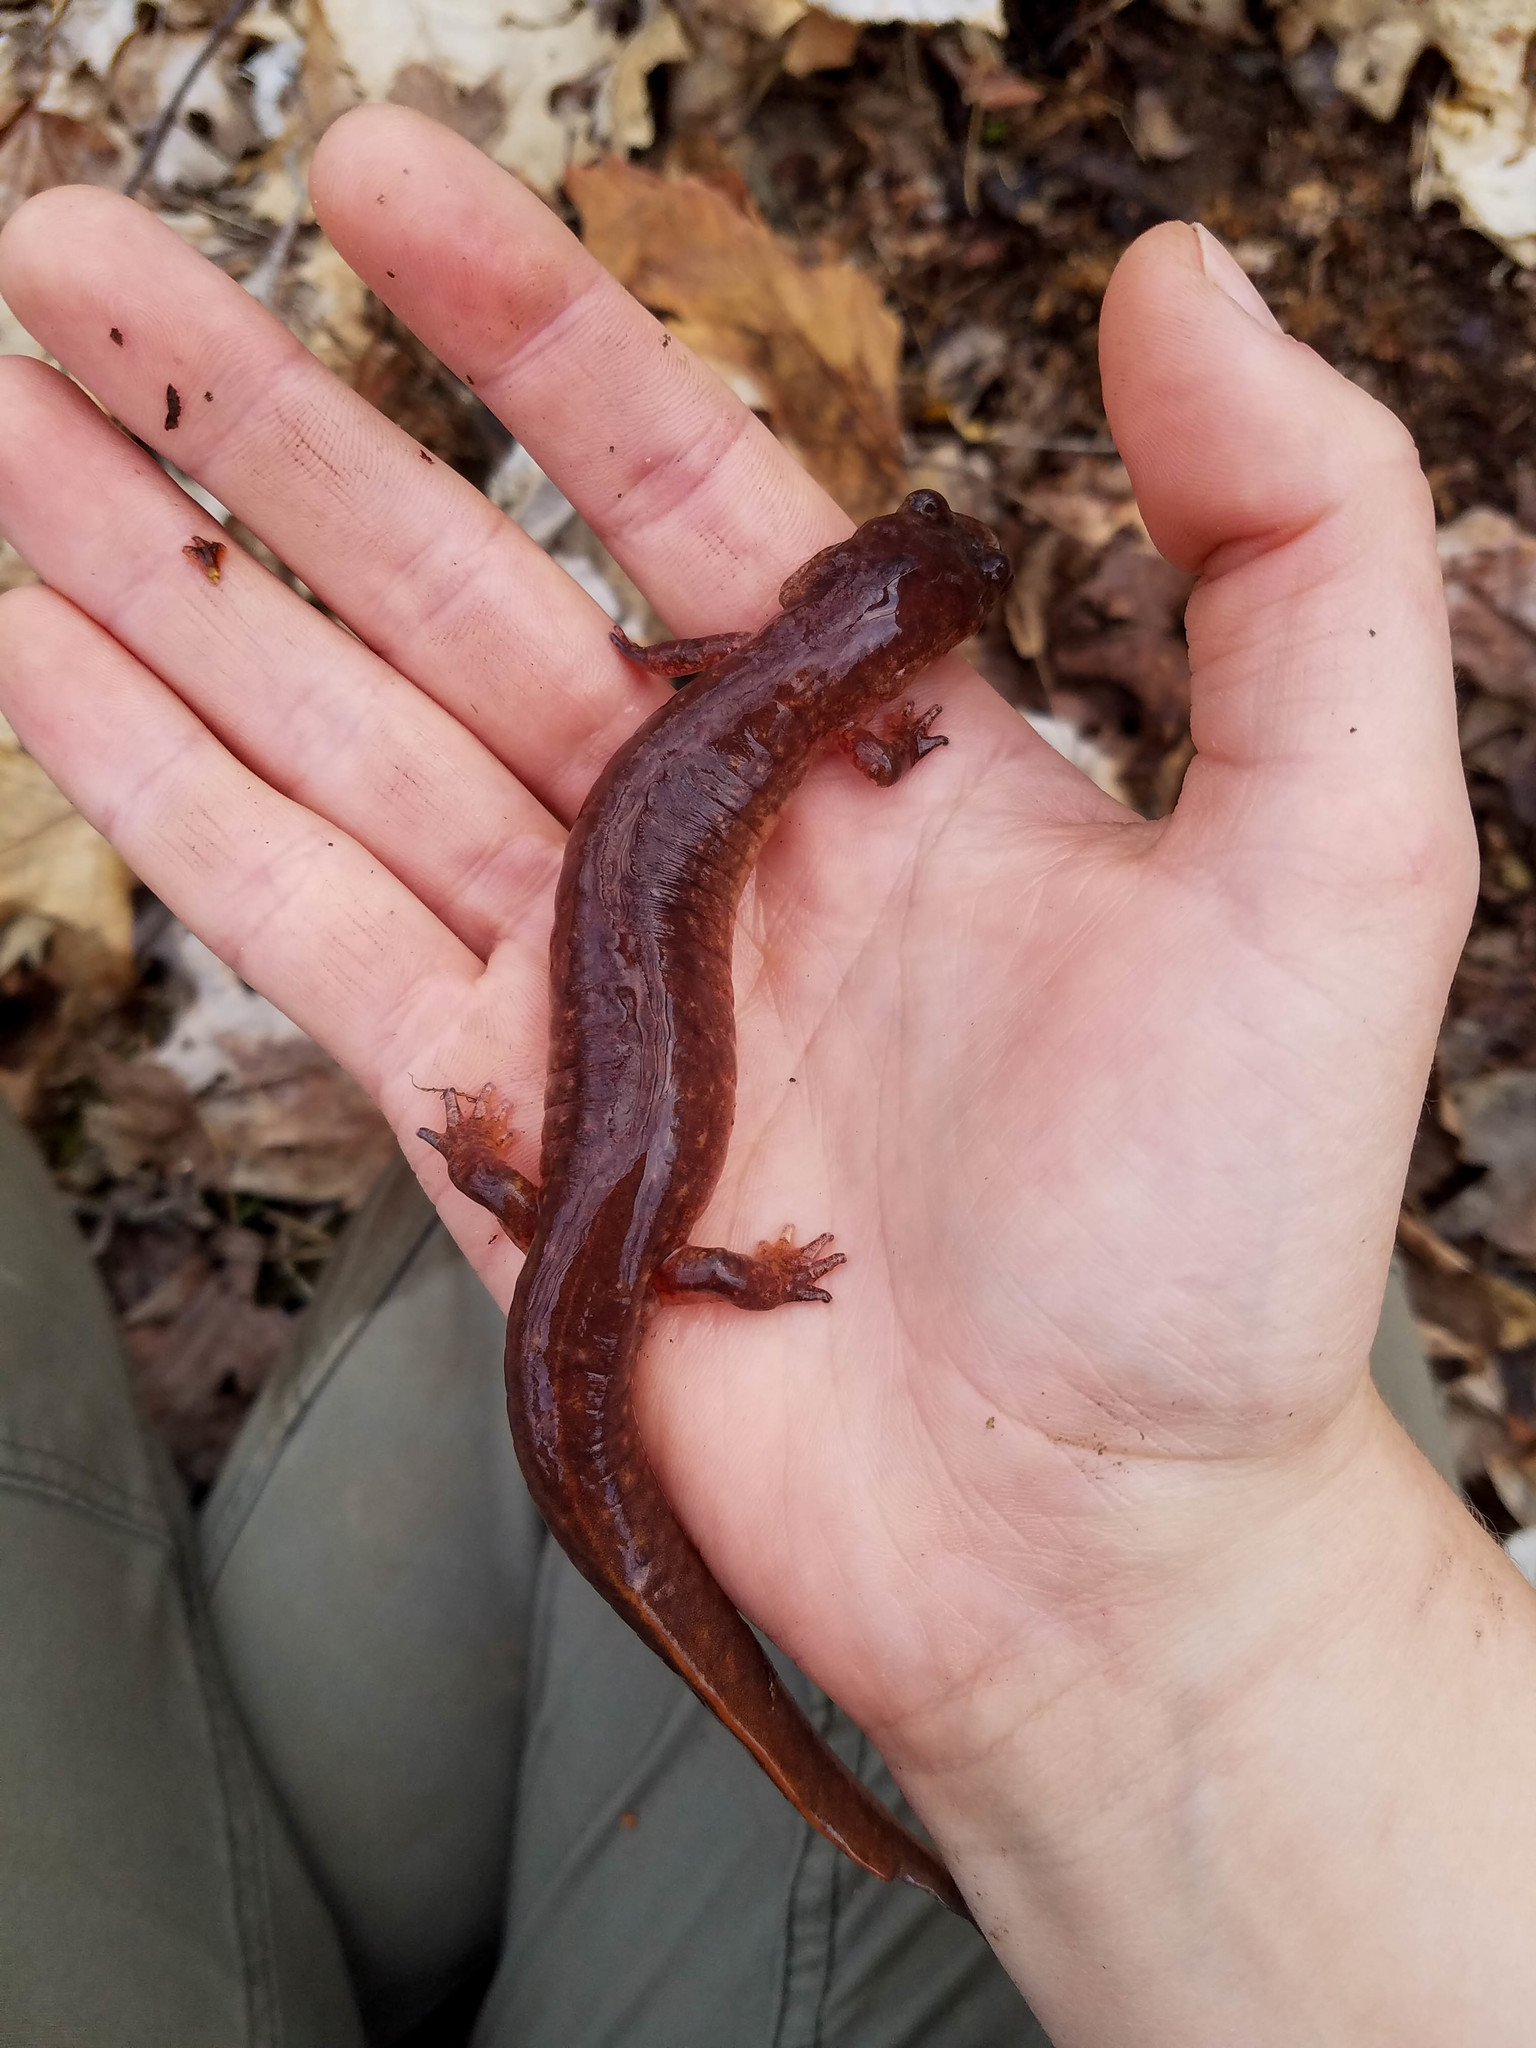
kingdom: Animalia
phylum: Chordata
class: Amphibia
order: Caudata
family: Plethodontidae
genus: Gyrinophilus
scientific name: Gyrinophilus porphyriticus
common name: Spring salamander
